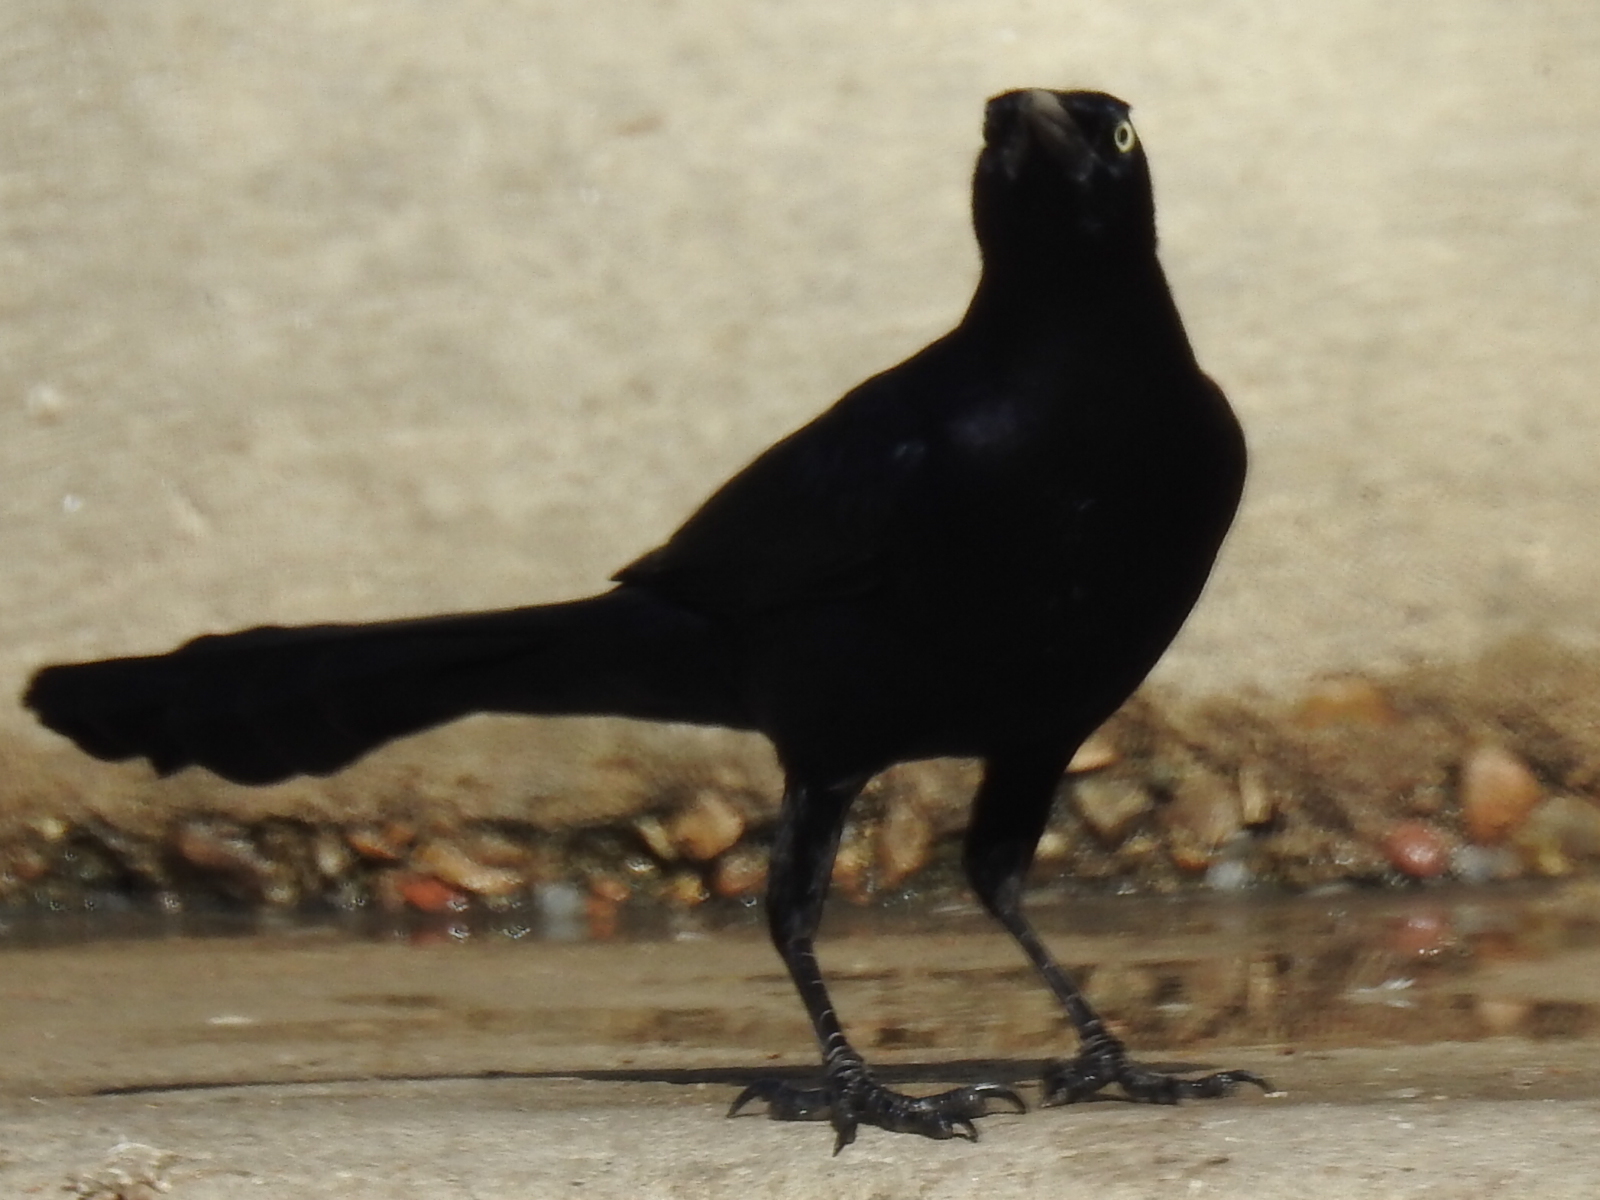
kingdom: Animalia
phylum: Chordata
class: Aves
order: Passeriformes
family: Icteridae
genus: Quiscalus
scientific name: Quiscalus mexicanus
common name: Great-tailed grackle
